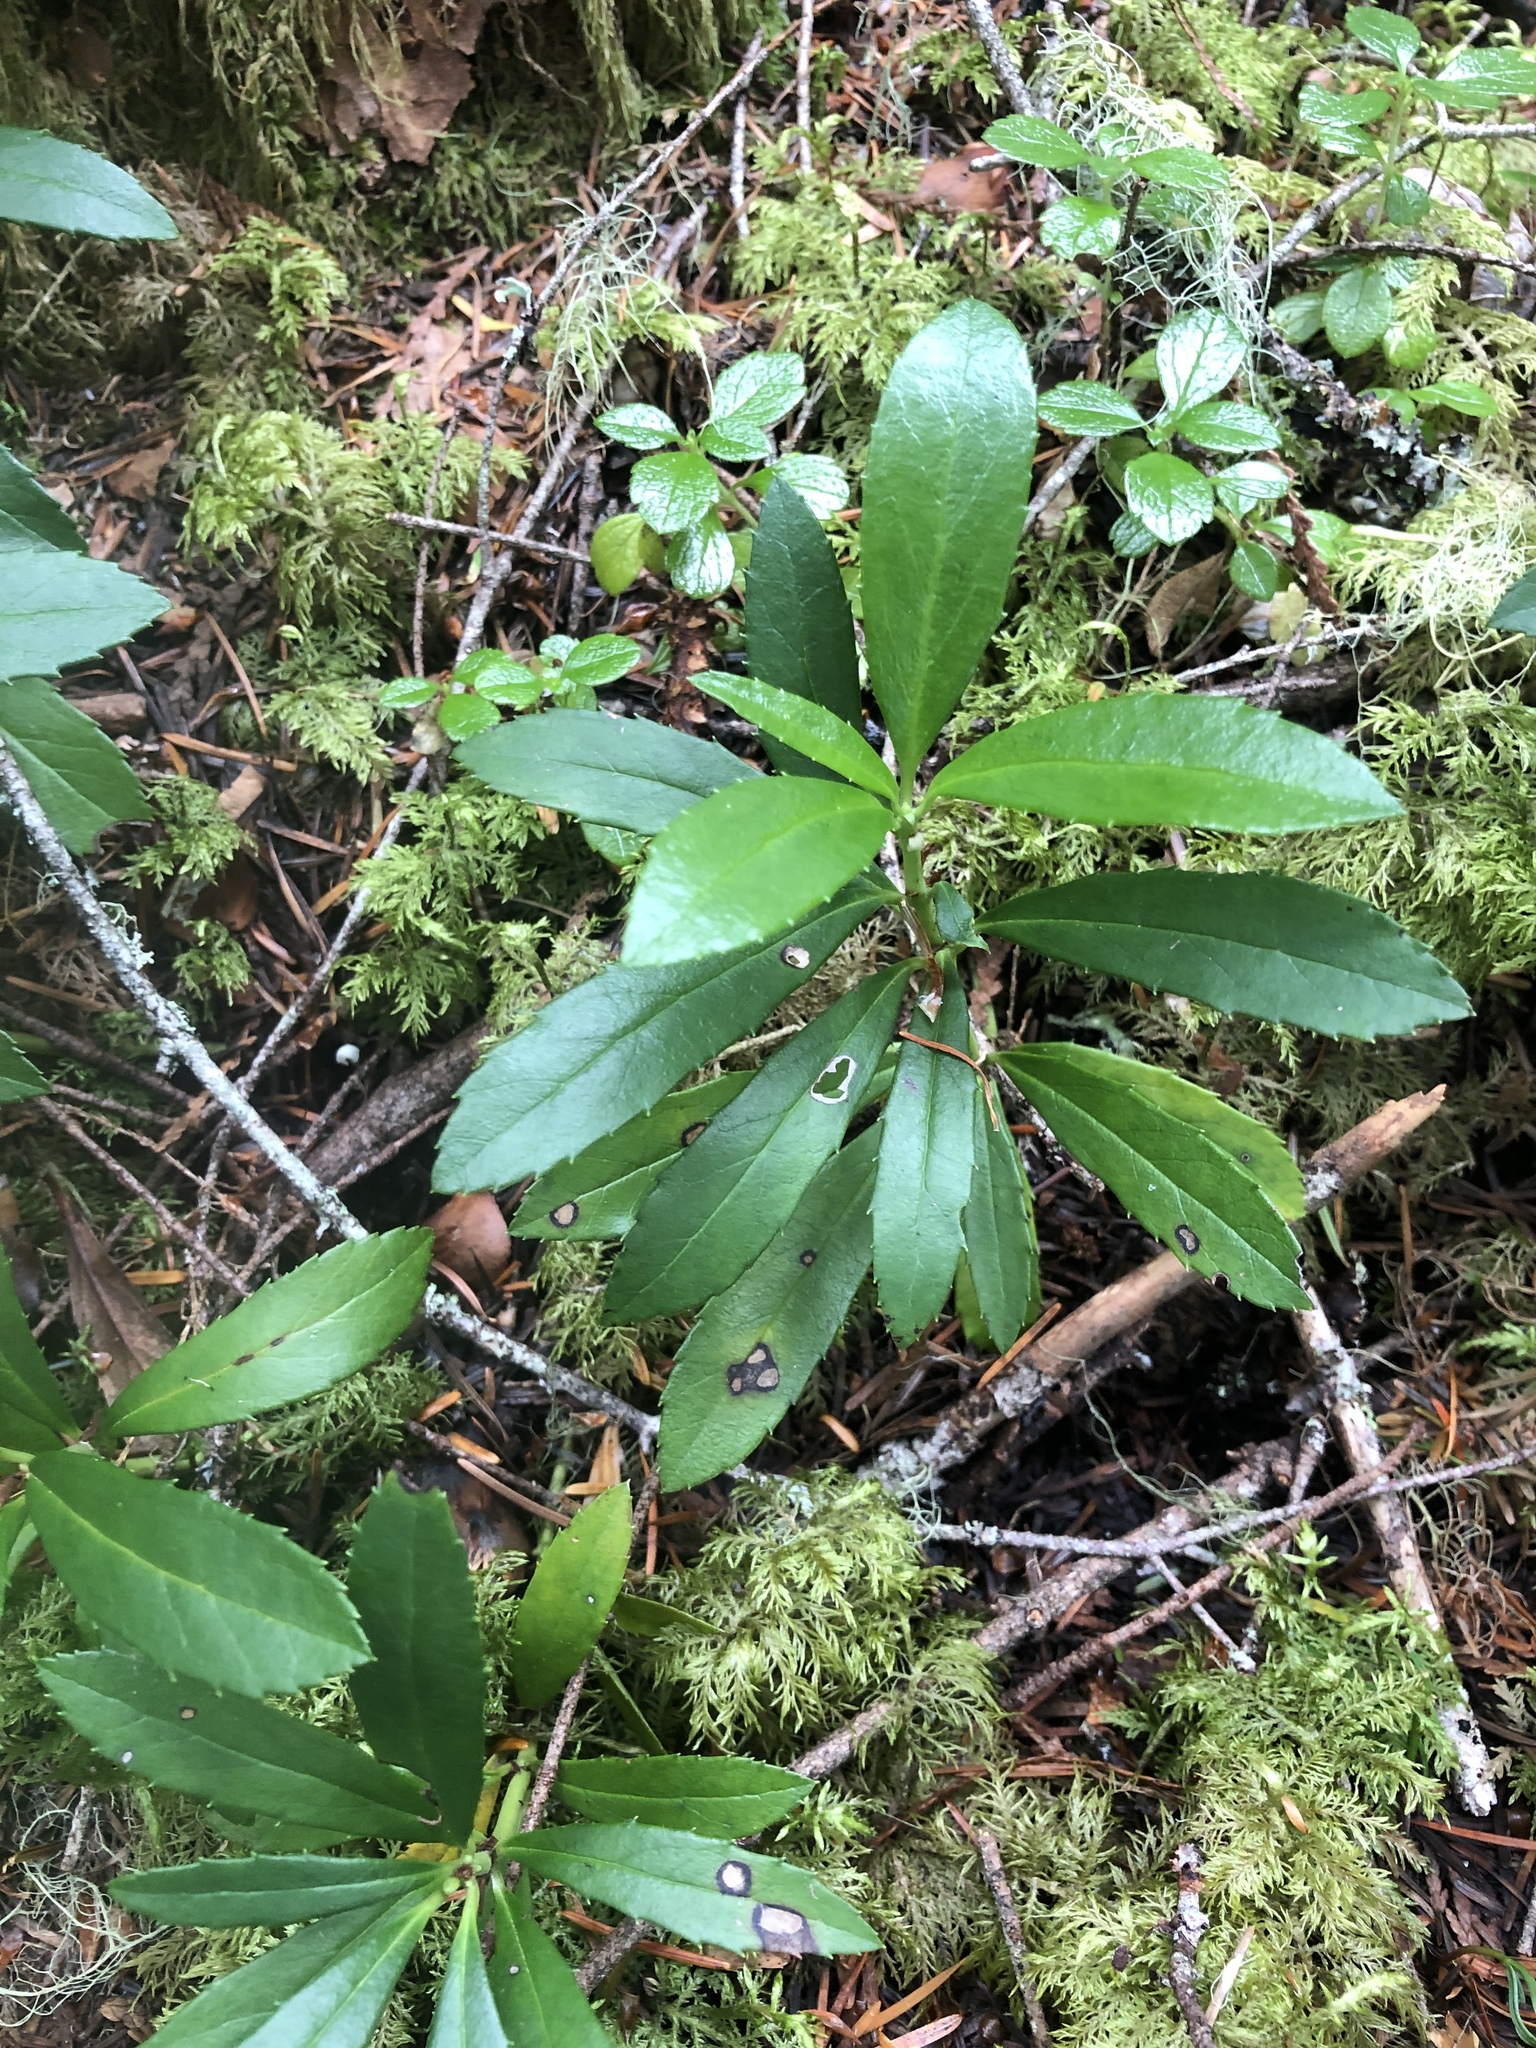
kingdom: Plantae
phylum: Tracheophyta
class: Magnoliopsida
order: Ericales
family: Ericaceae
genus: Chimaphila
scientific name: Chimaphila umbellata
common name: Pipsissewa
